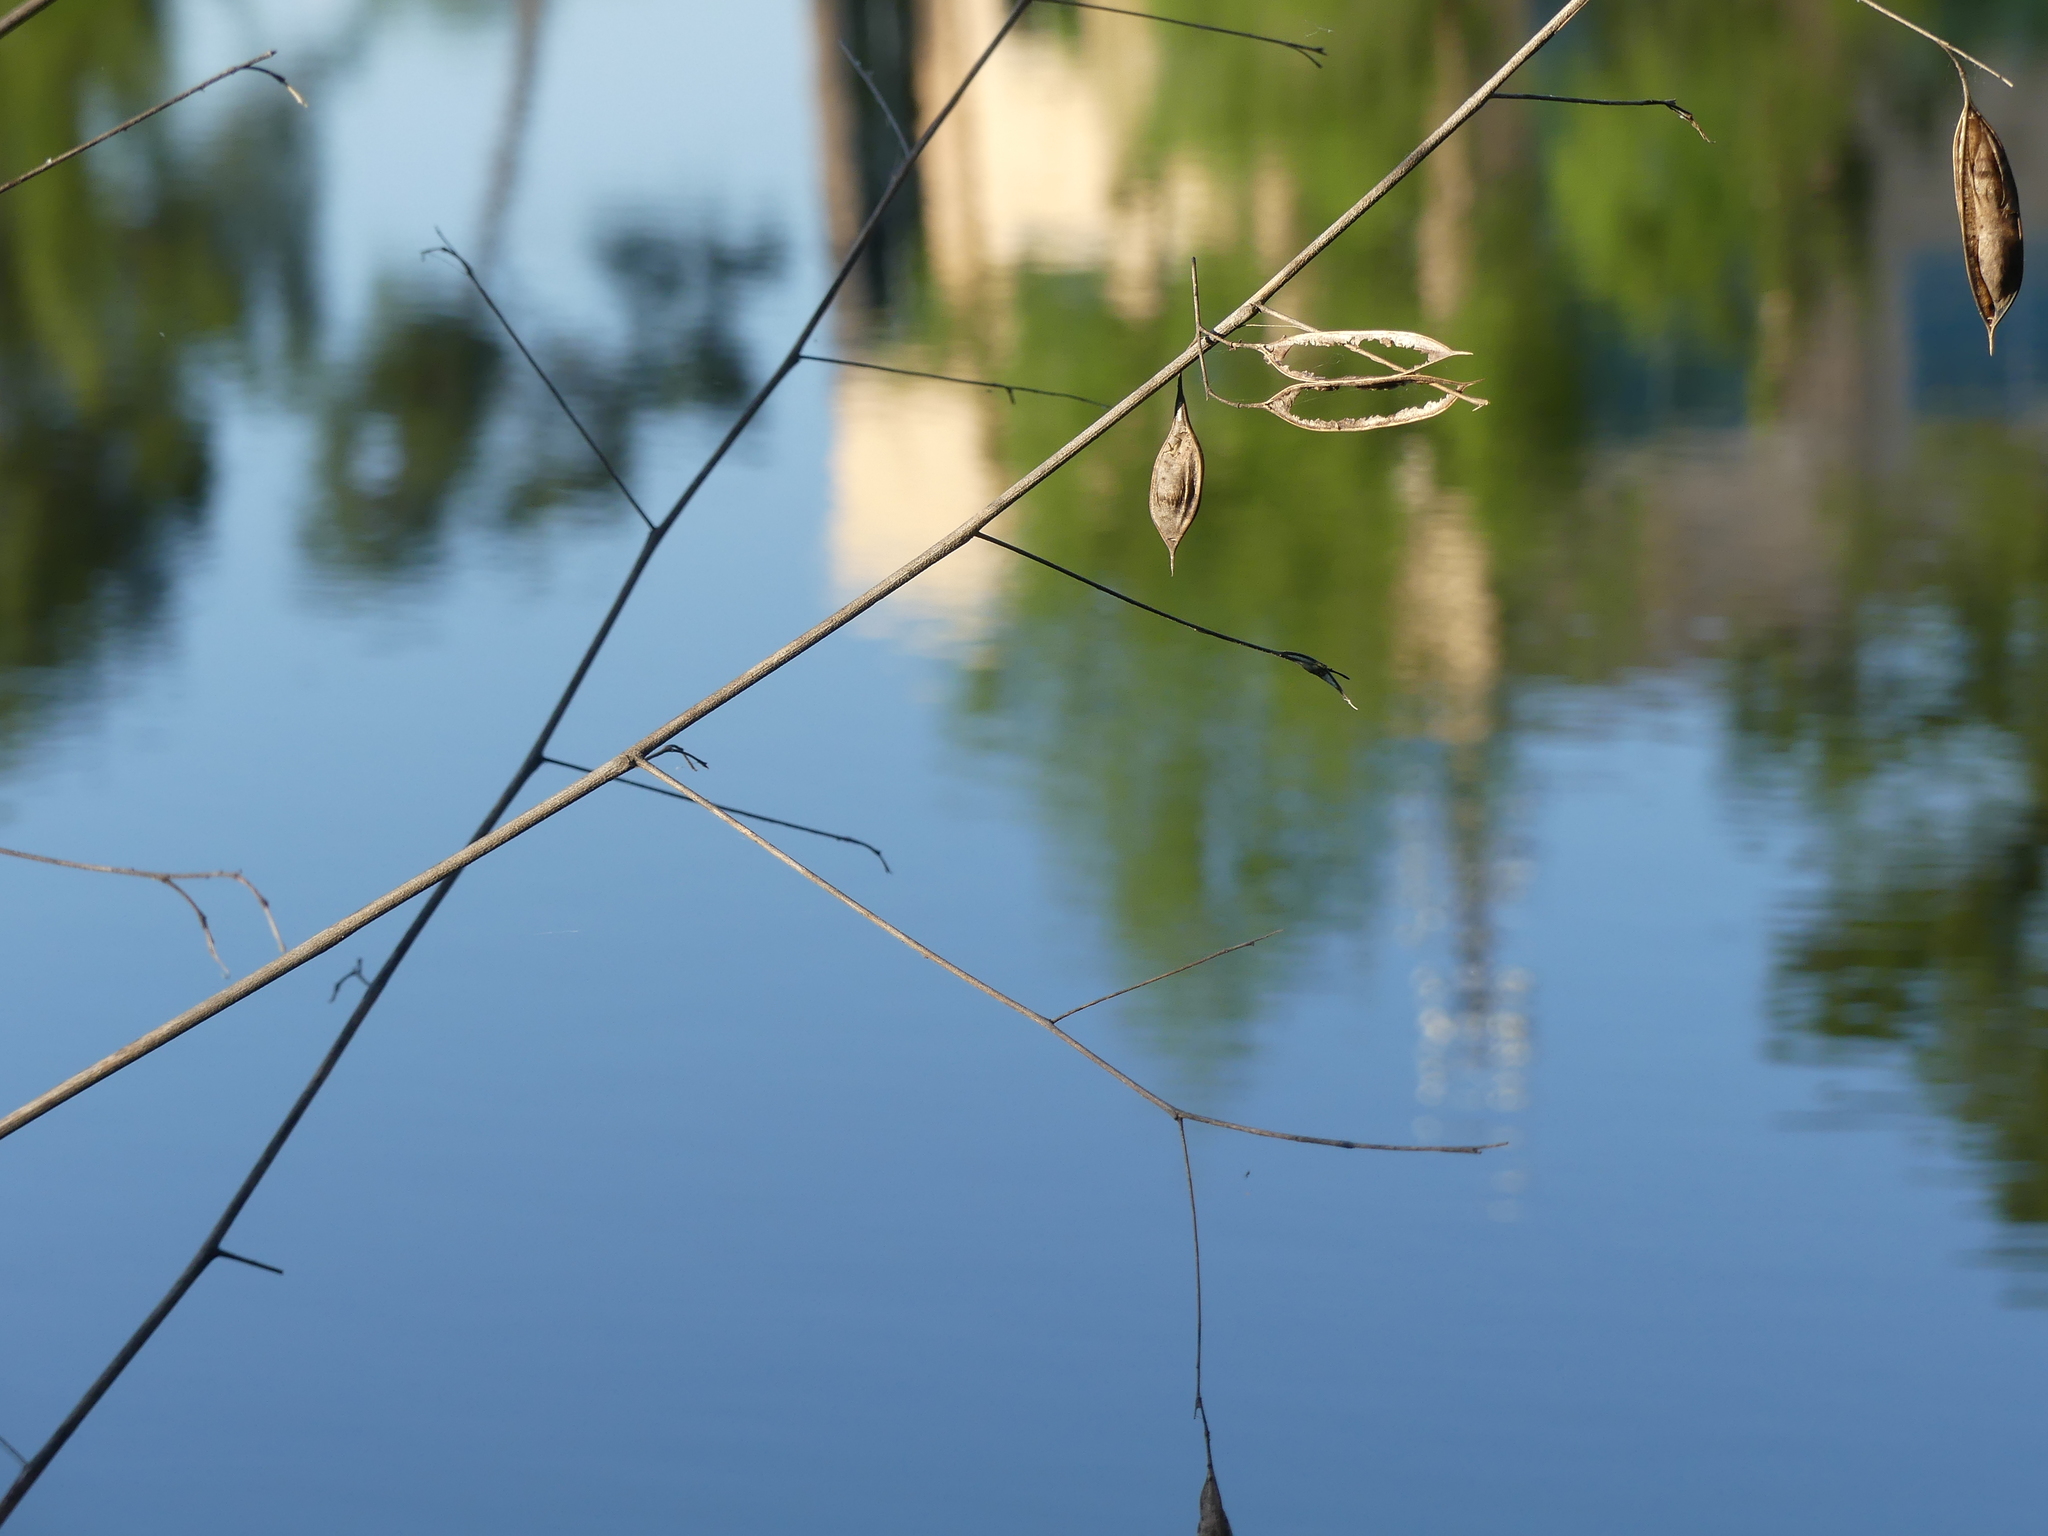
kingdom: Plantae
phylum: Tracheophyta
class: Magnoliopsida
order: Fabales
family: Fabaceae
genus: Sesbania
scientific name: Sesbania vesicaria
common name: Bagpod
